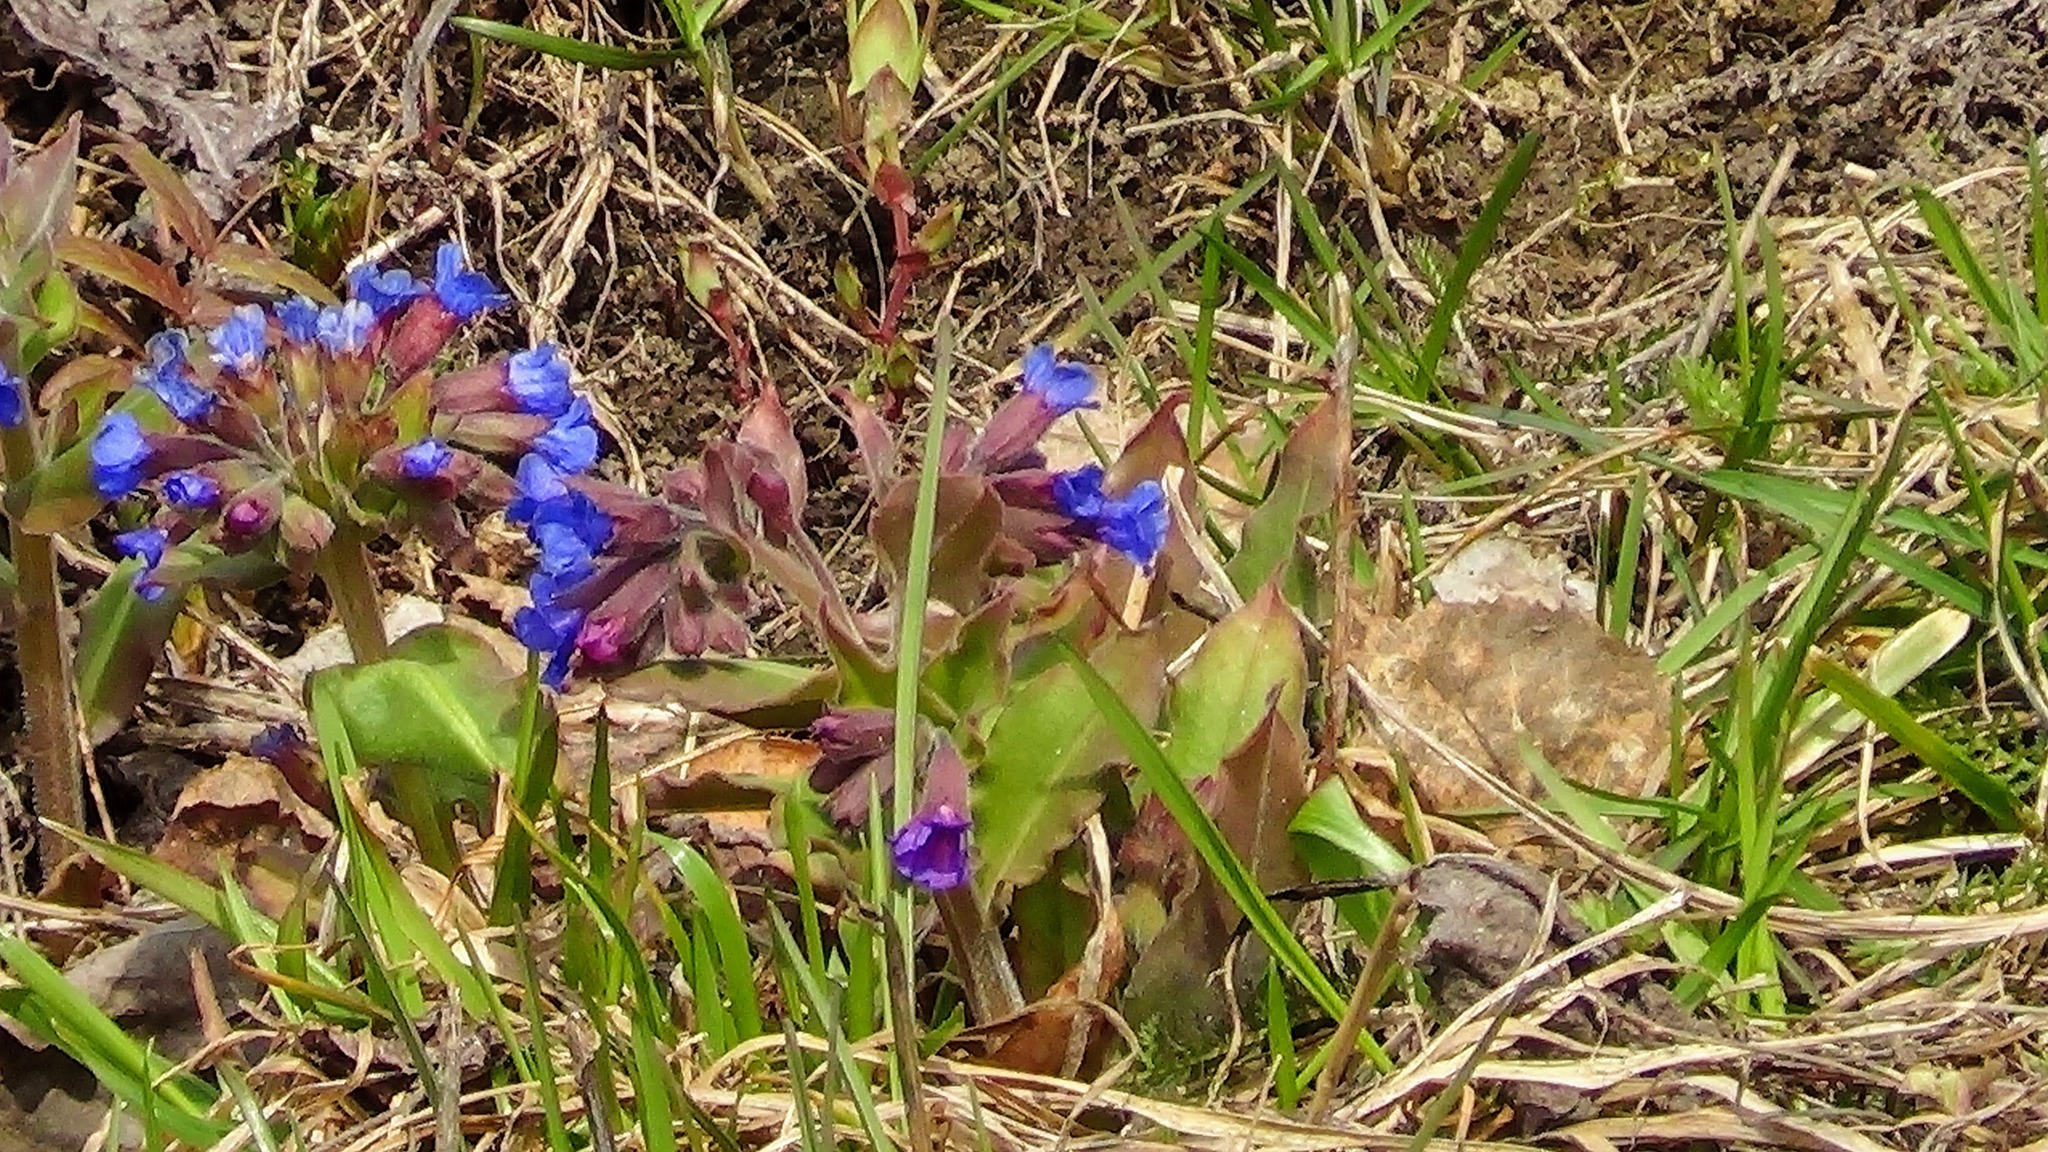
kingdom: Plantae
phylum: Tracheophyta
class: Magnoliopsida
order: Boraginales
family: Boraginaceae
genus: Pulmonaria
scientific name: Pulmonaria mollis
